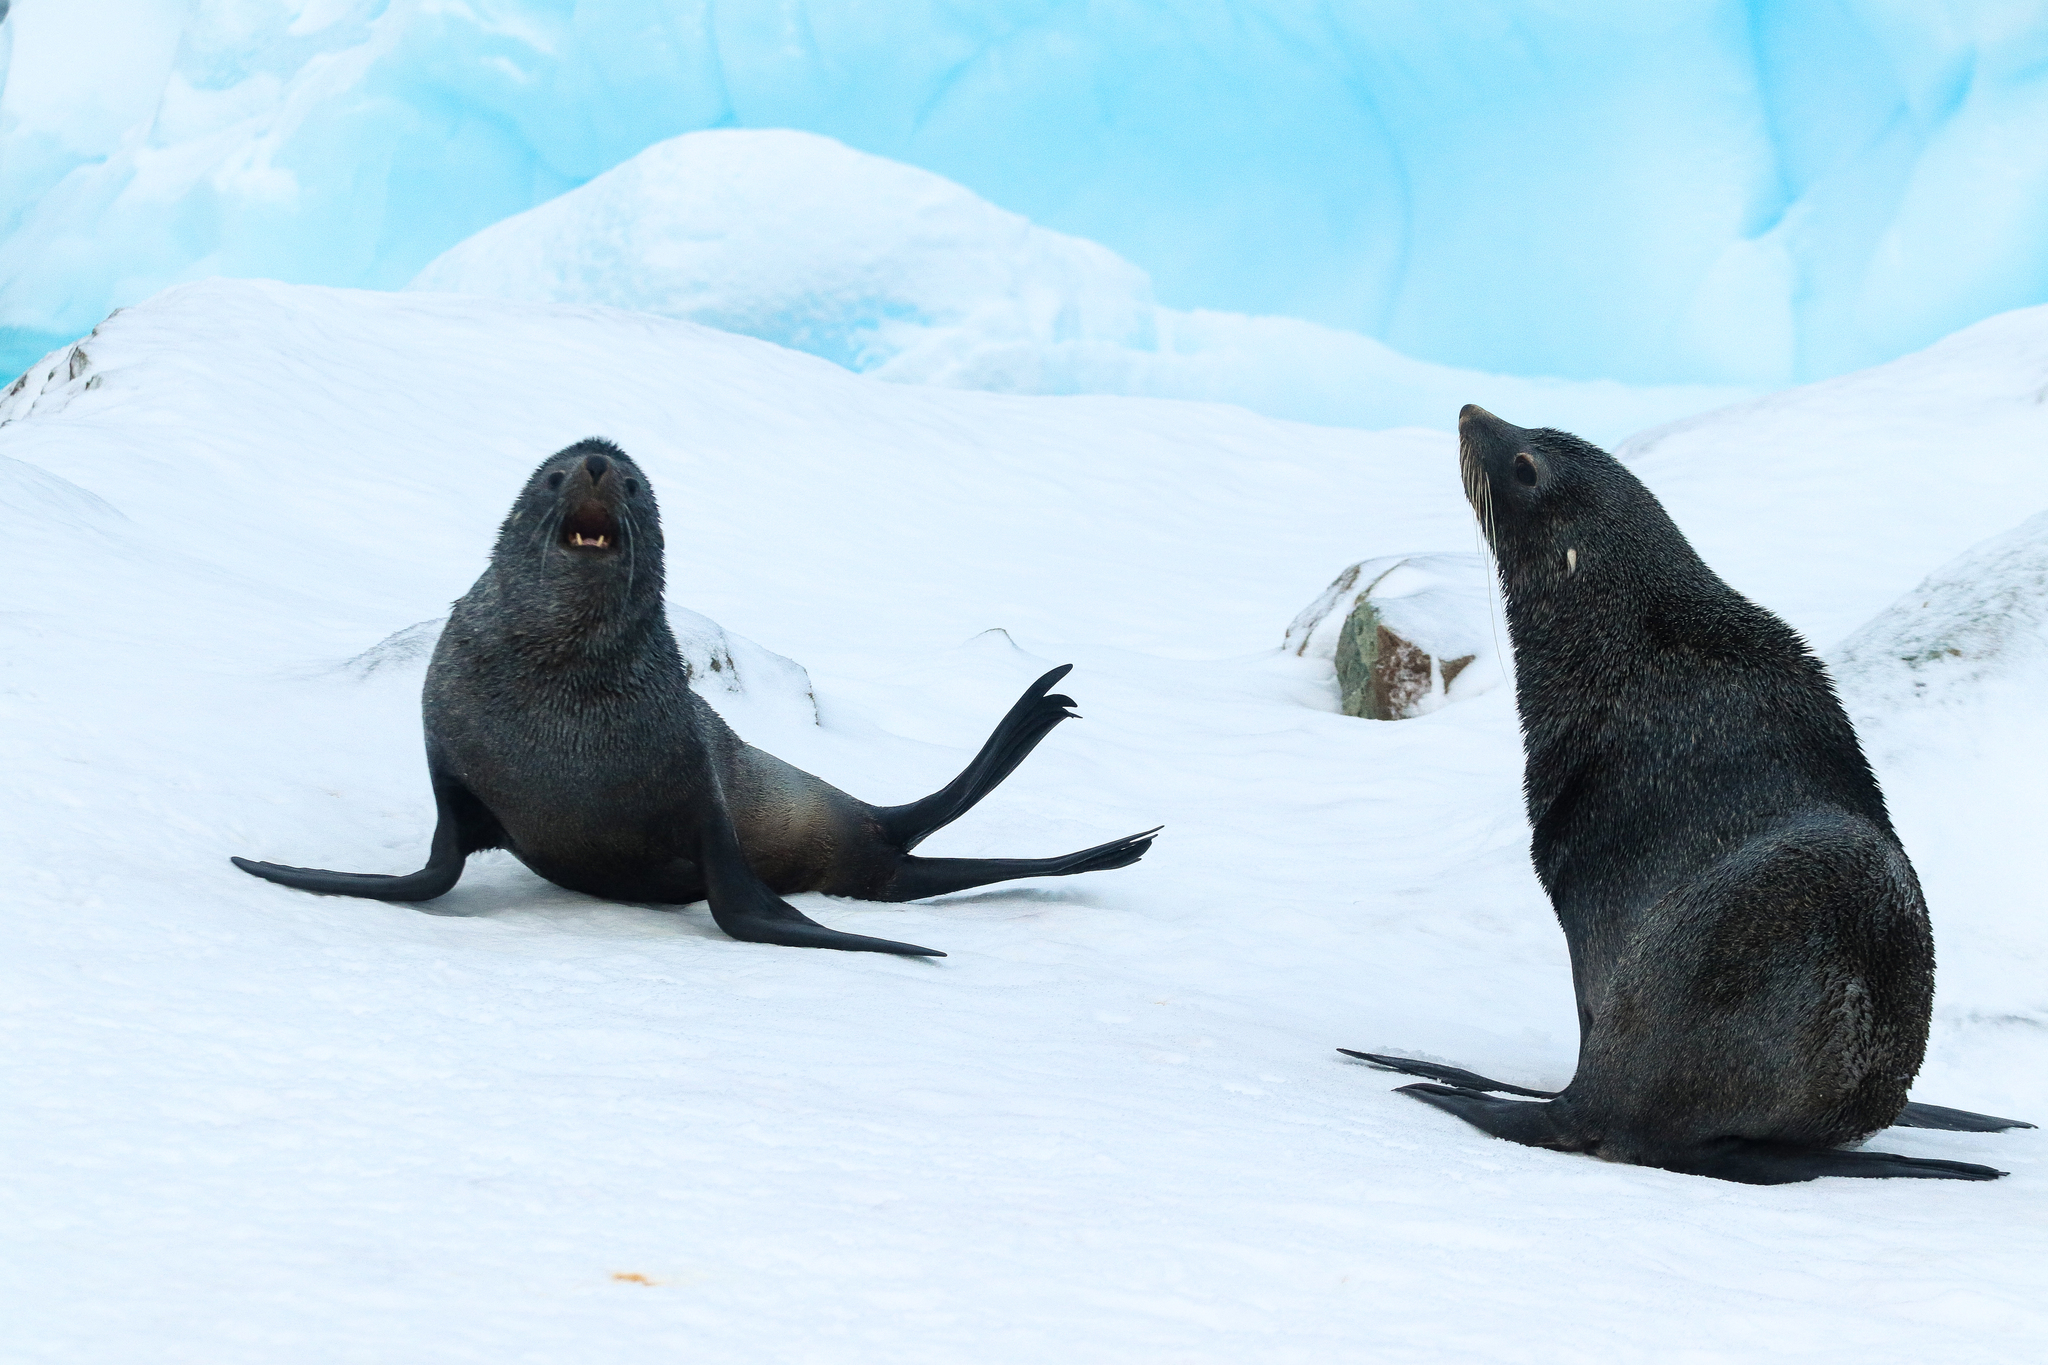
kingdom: Animalia
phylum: Chordata
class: Mammalia
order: Carnivora
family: Otariidae
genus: Arctocephalus
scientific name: Arctocephalus gazella
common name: Antarctic fur seal
